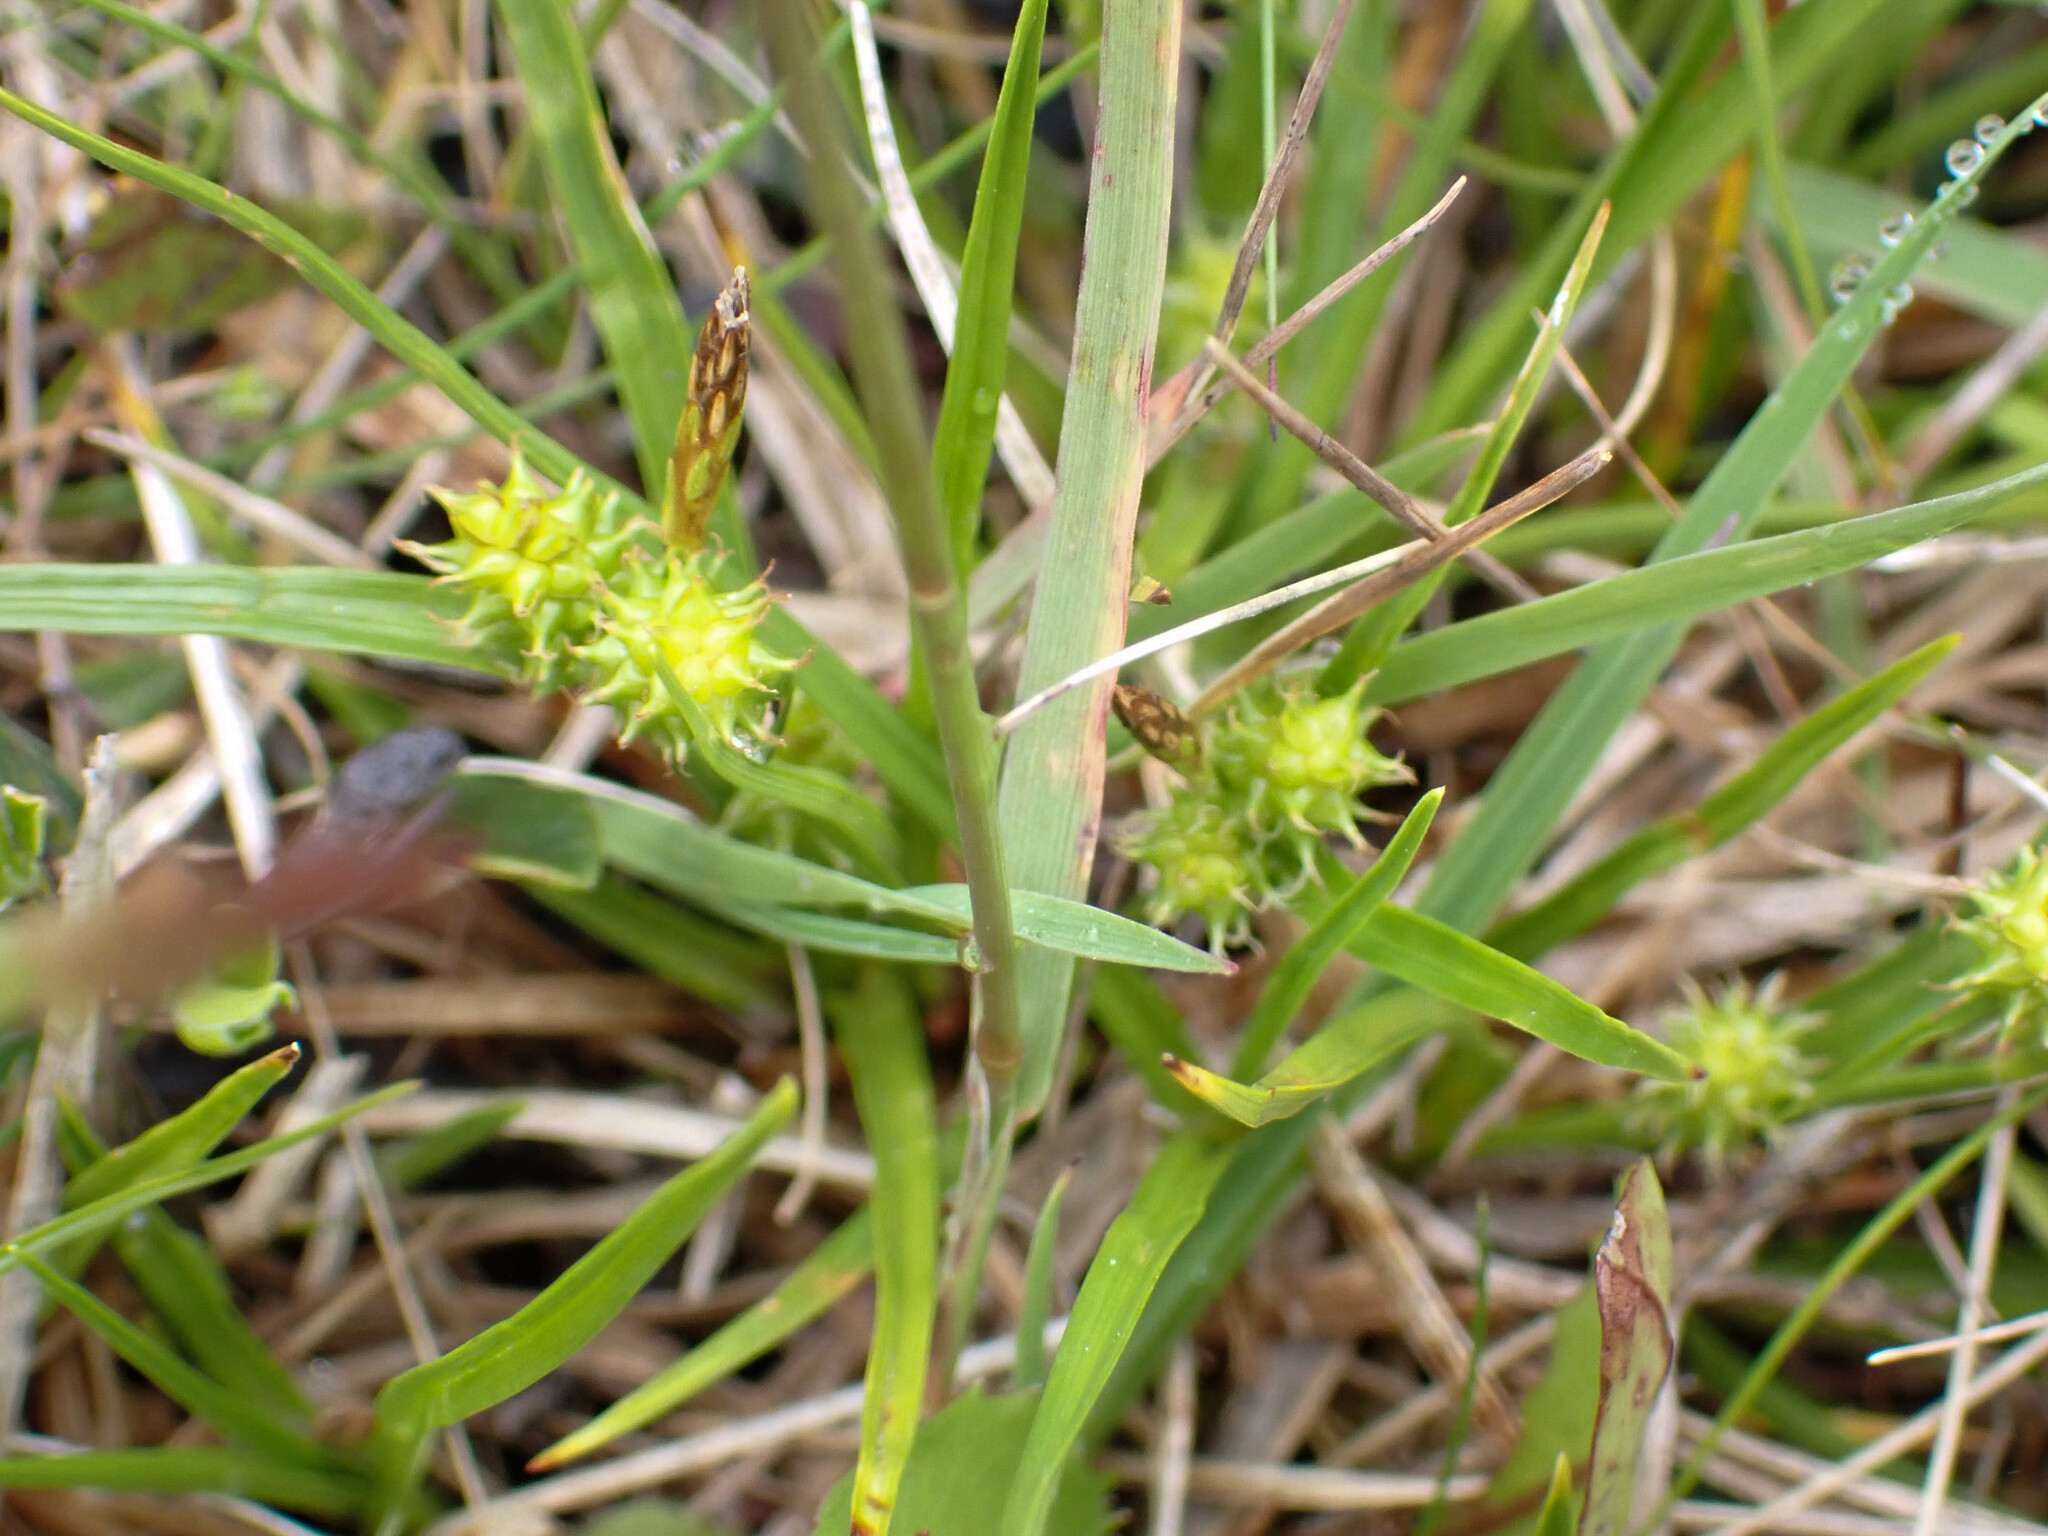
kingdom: Plantae
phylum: Tracheophyta
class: Liliopsida
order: Poales
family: Cyperaceae
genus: Carex
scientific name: Carex
